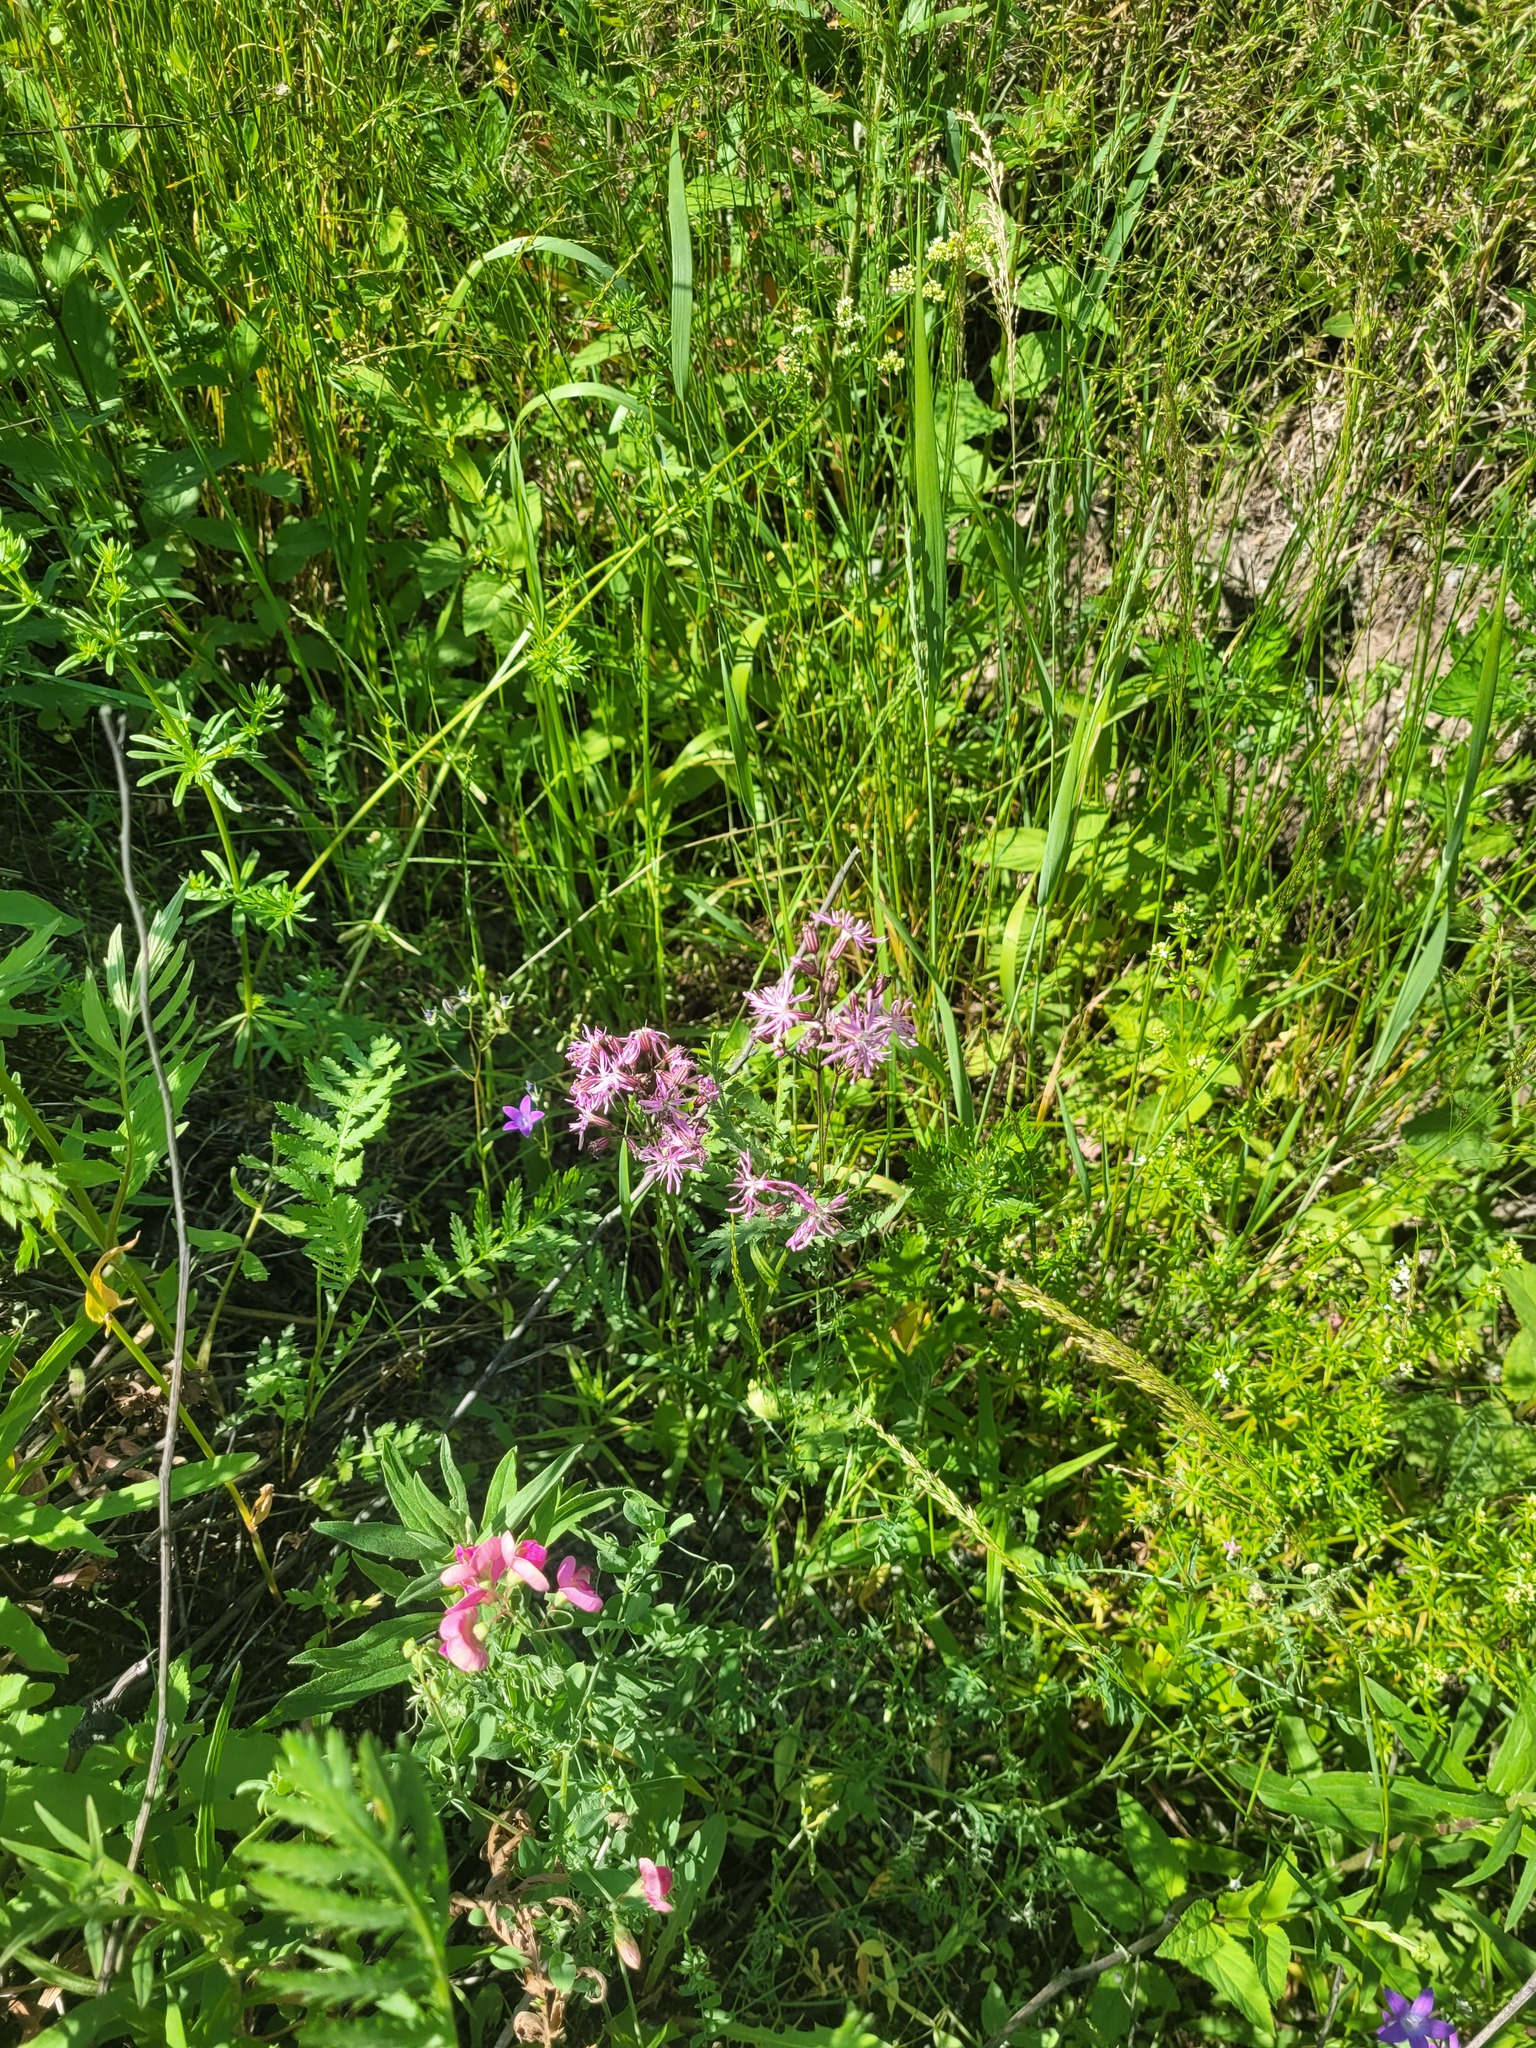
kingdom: Plantae
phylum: Tracheophyta
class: Magnoliopsida
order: Caryophyllales
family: Caryophyllaceae
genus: Silene
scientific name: Silene flos-cuculi
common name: Ragged-robin
